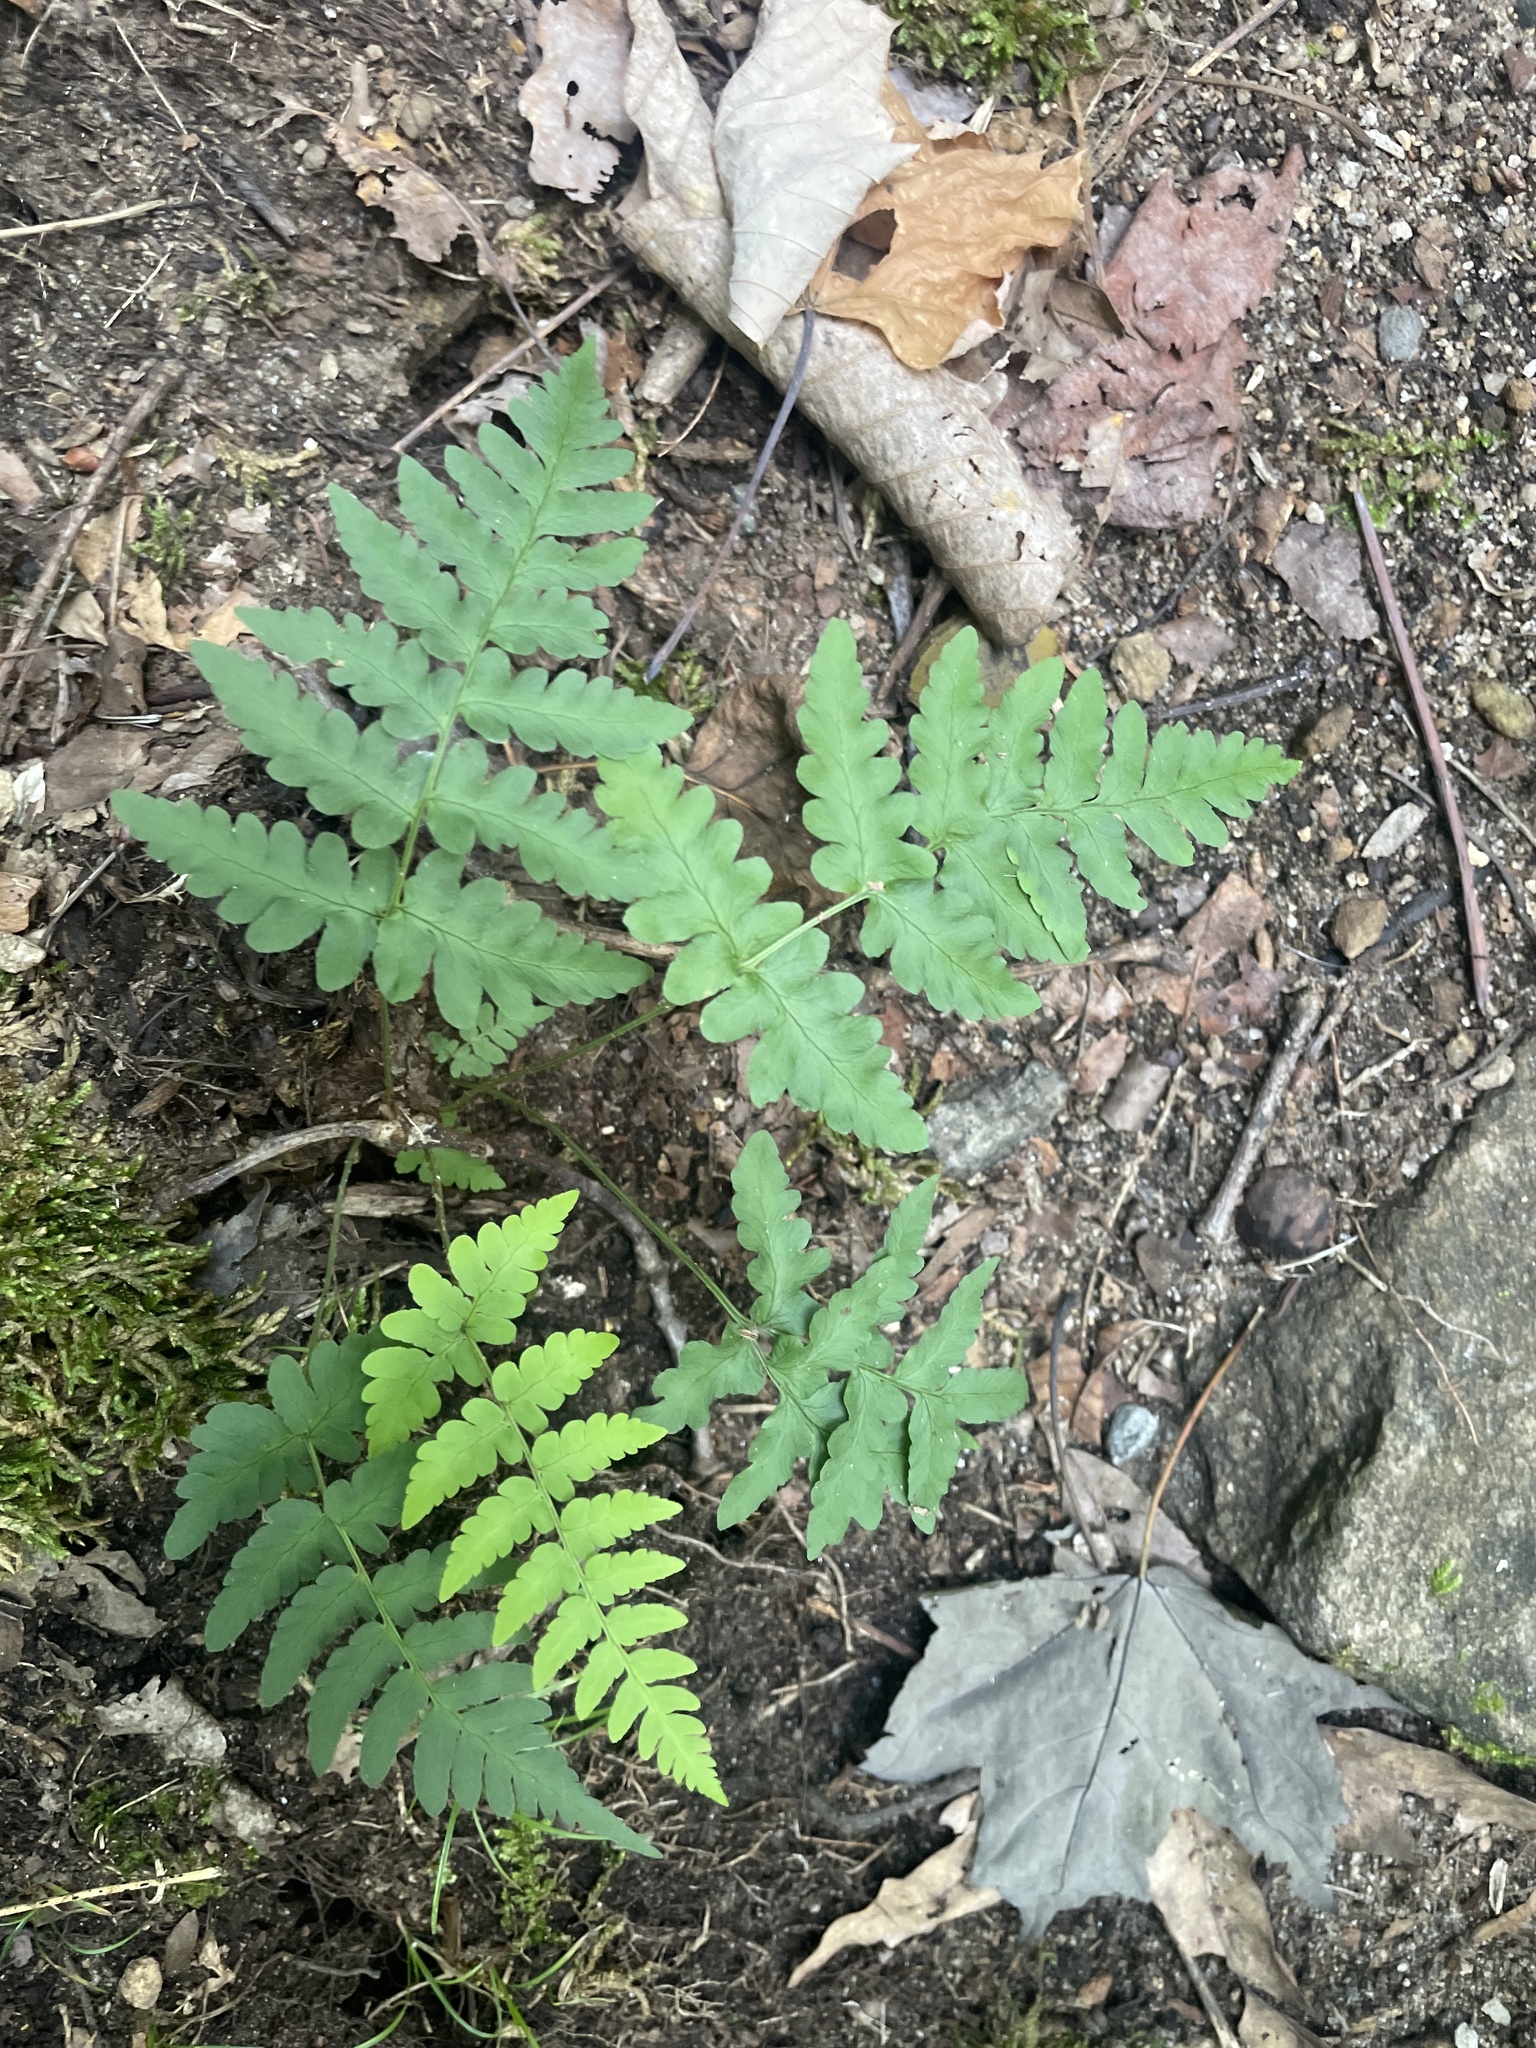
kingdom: Plantae
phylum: Tracheophyta
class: Polypodiopsida
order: Polypodiales
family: Dryopteridaceae
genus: Dryopteris
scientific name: Dryopteris marginalis
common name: Marginal wood fern
